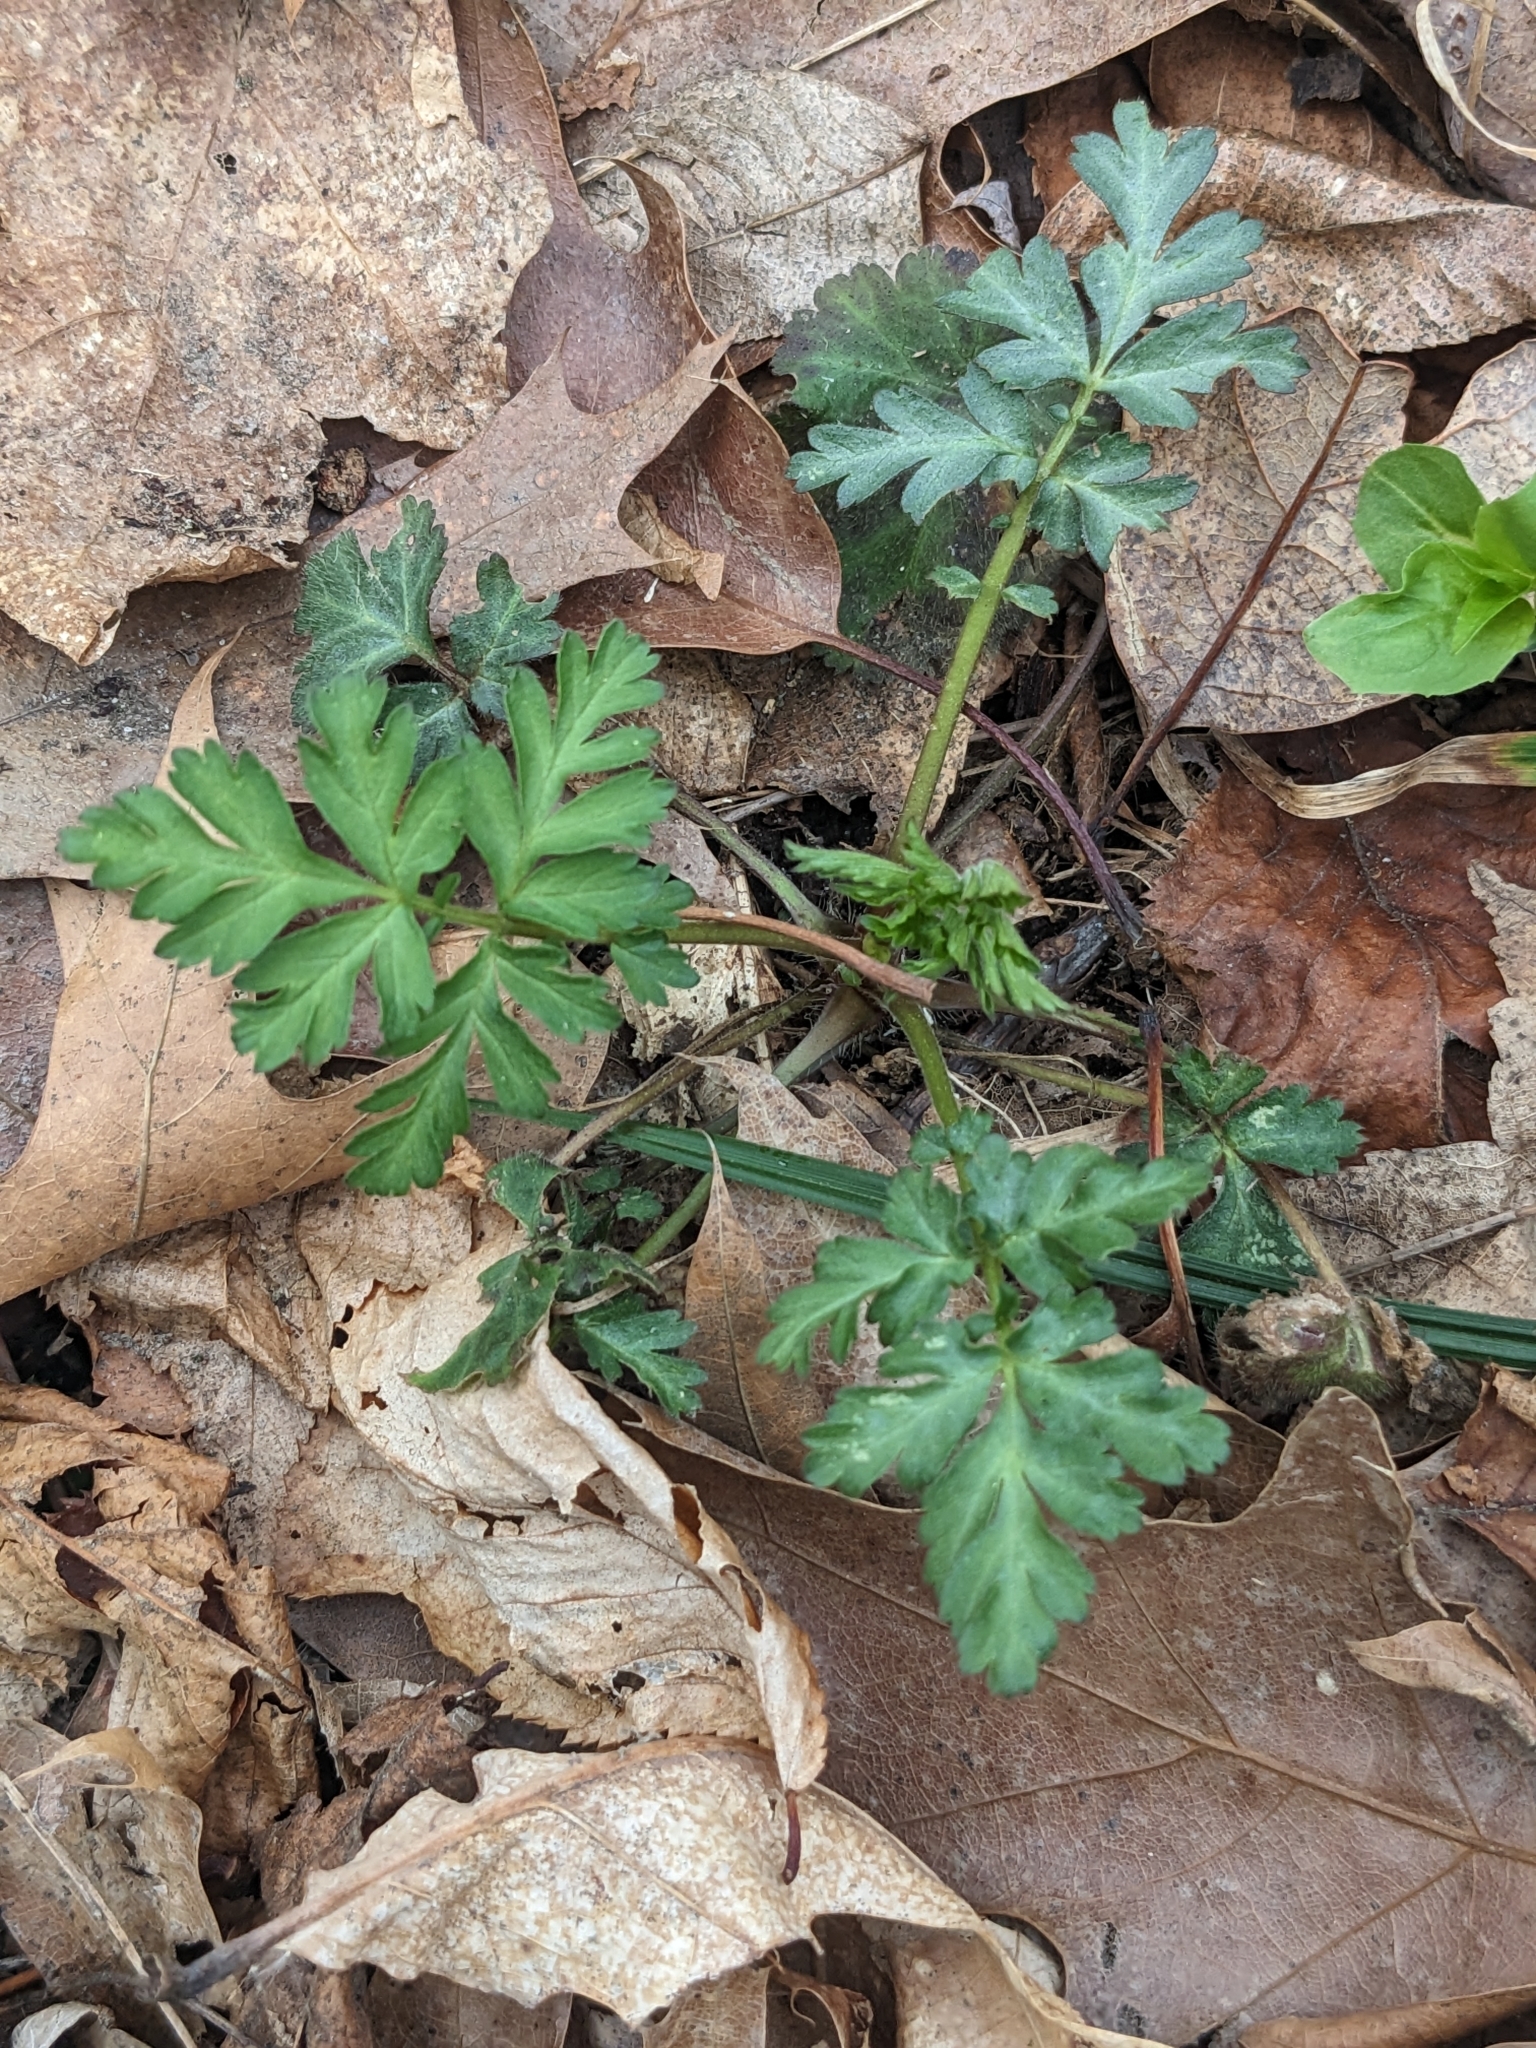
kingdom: Plantae
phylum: Tracheophyta
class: Magnoliopsida
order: Rosales
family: Rosaceae
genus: Geum
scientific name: Geum canadense
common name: White avens
